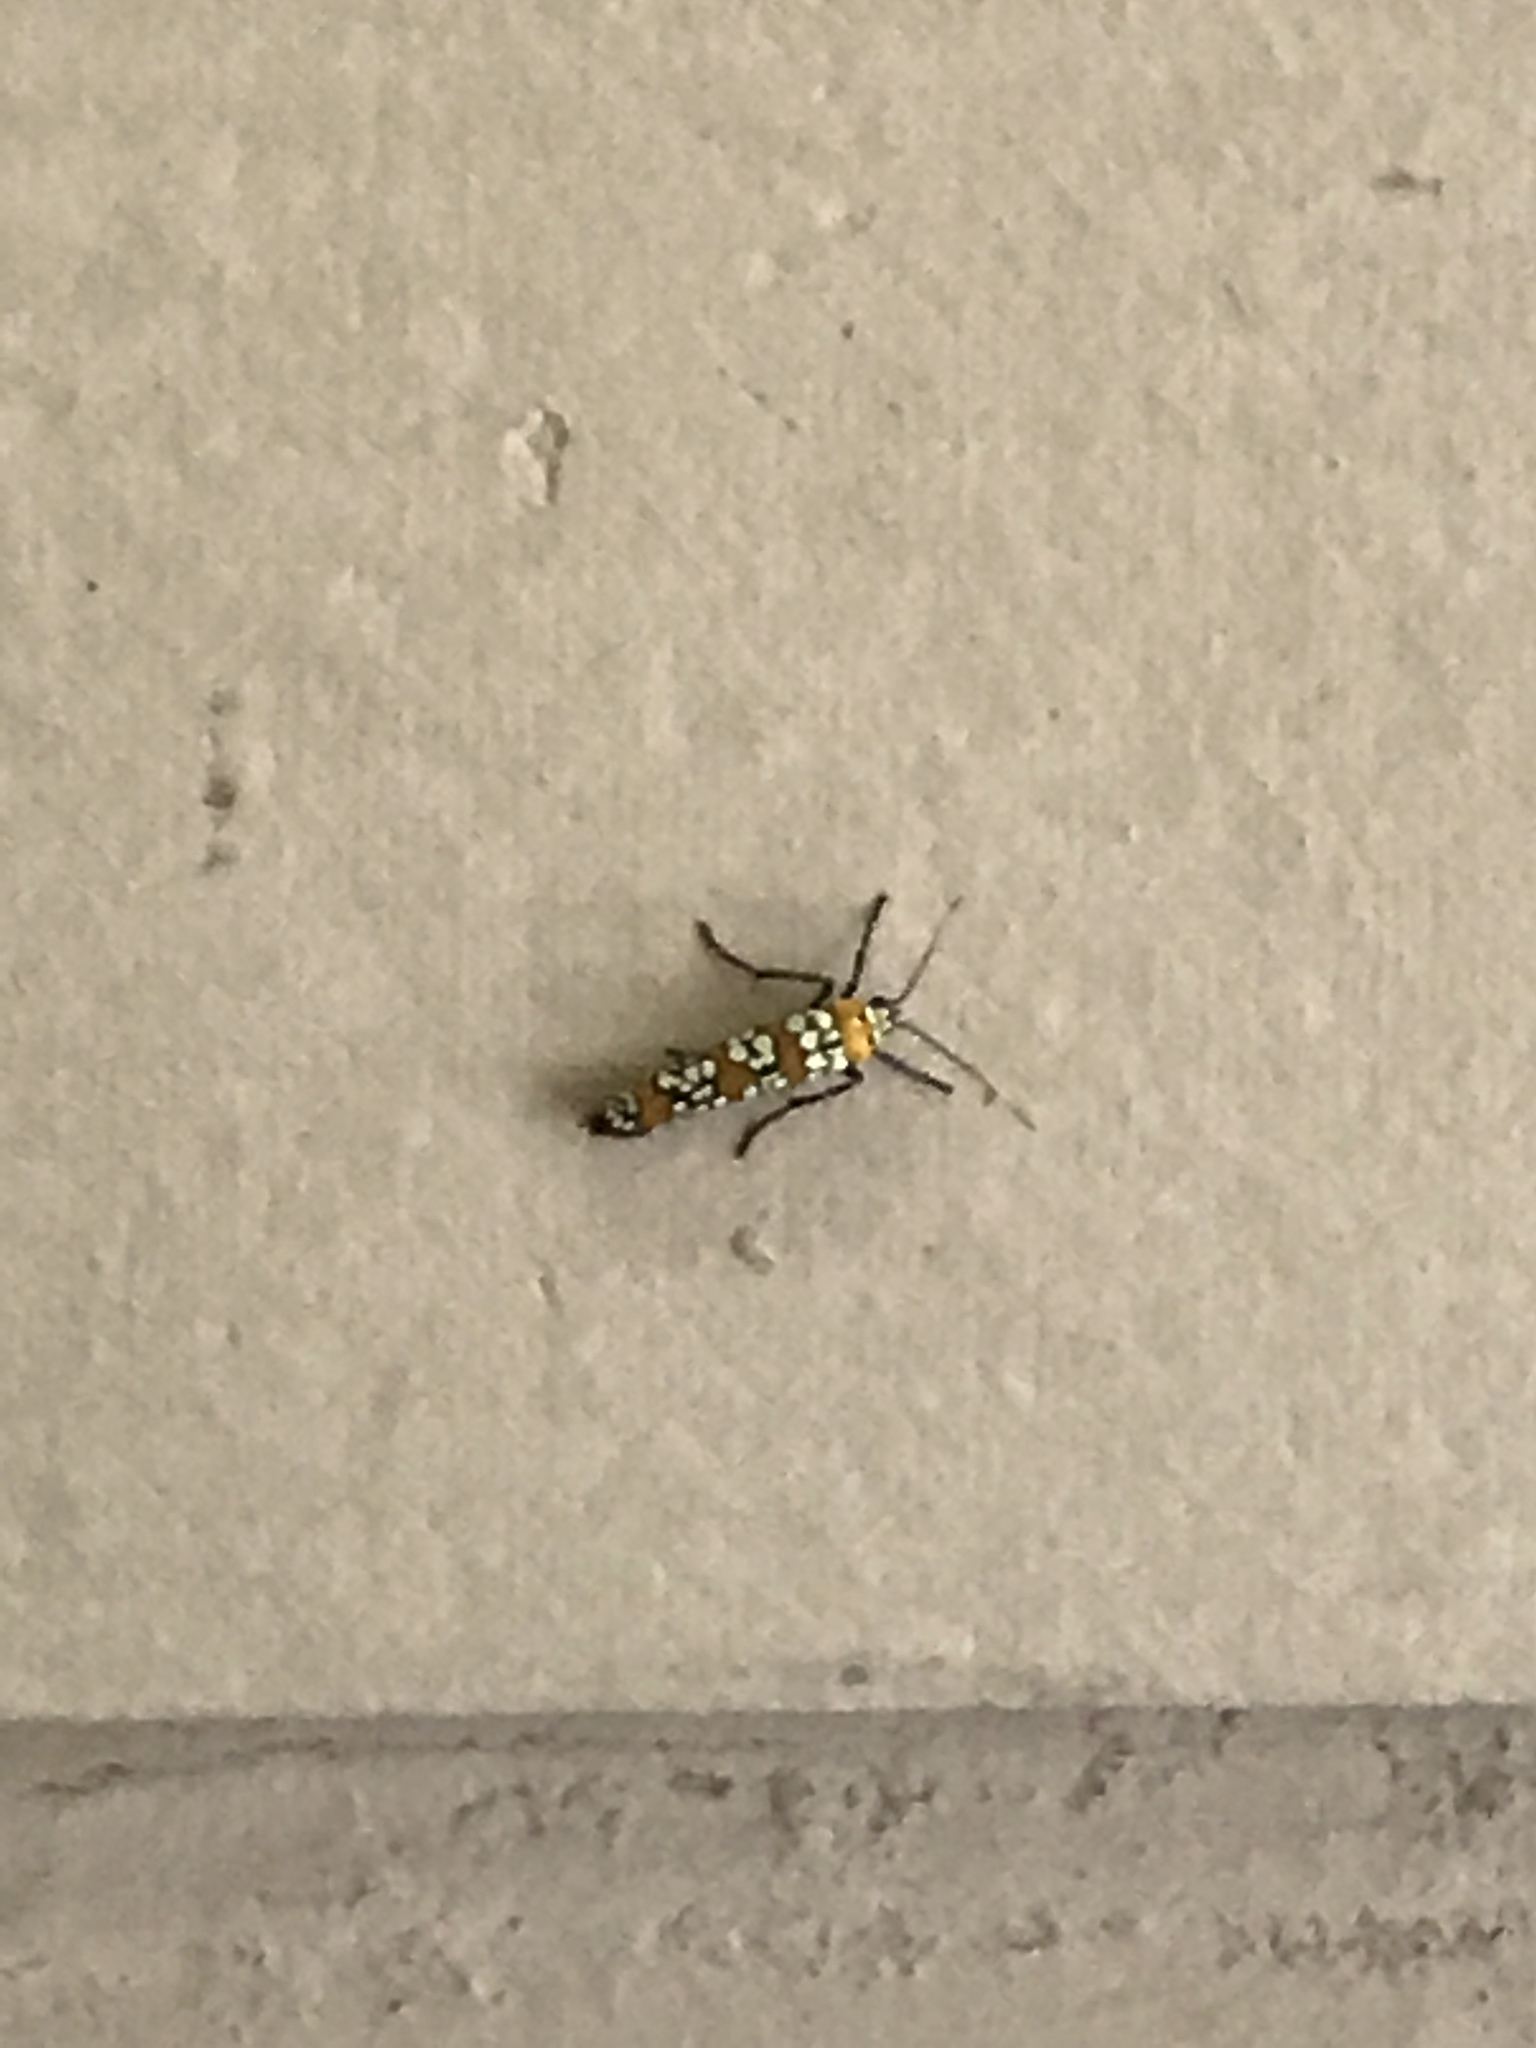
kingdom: Animalia
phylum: Arthropoda
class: Insecta
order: Lepidoptera
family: Attevidae
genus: Atteva
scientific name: Atteva punctella
